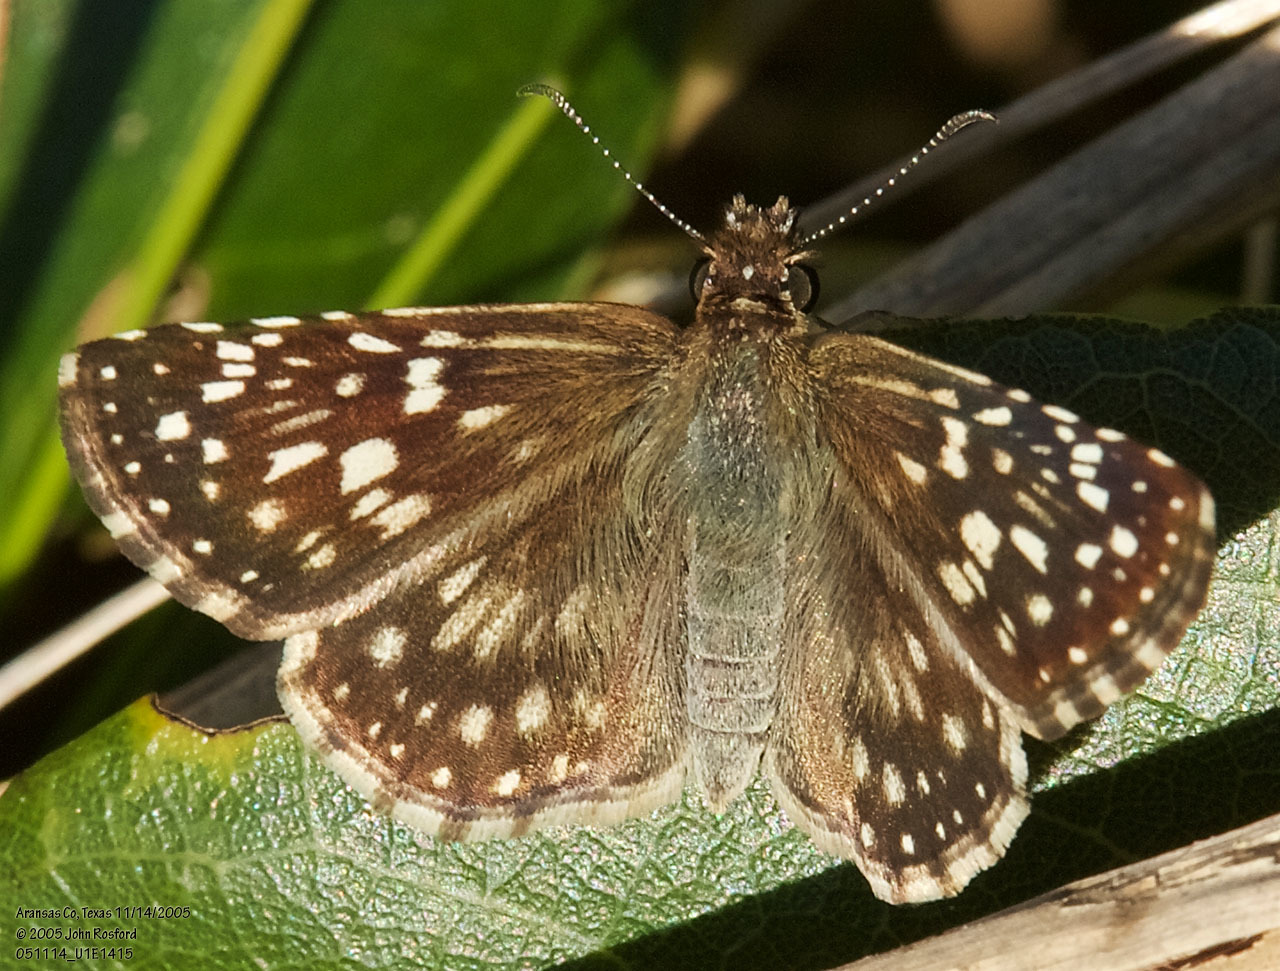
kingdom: Animalia
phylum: Arthropoda
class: Insecta
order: Lepidoptera
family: Hesperiidae
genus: Pyrgus
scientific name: Pyrgus oileus
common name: Tropical checkered-skipper
